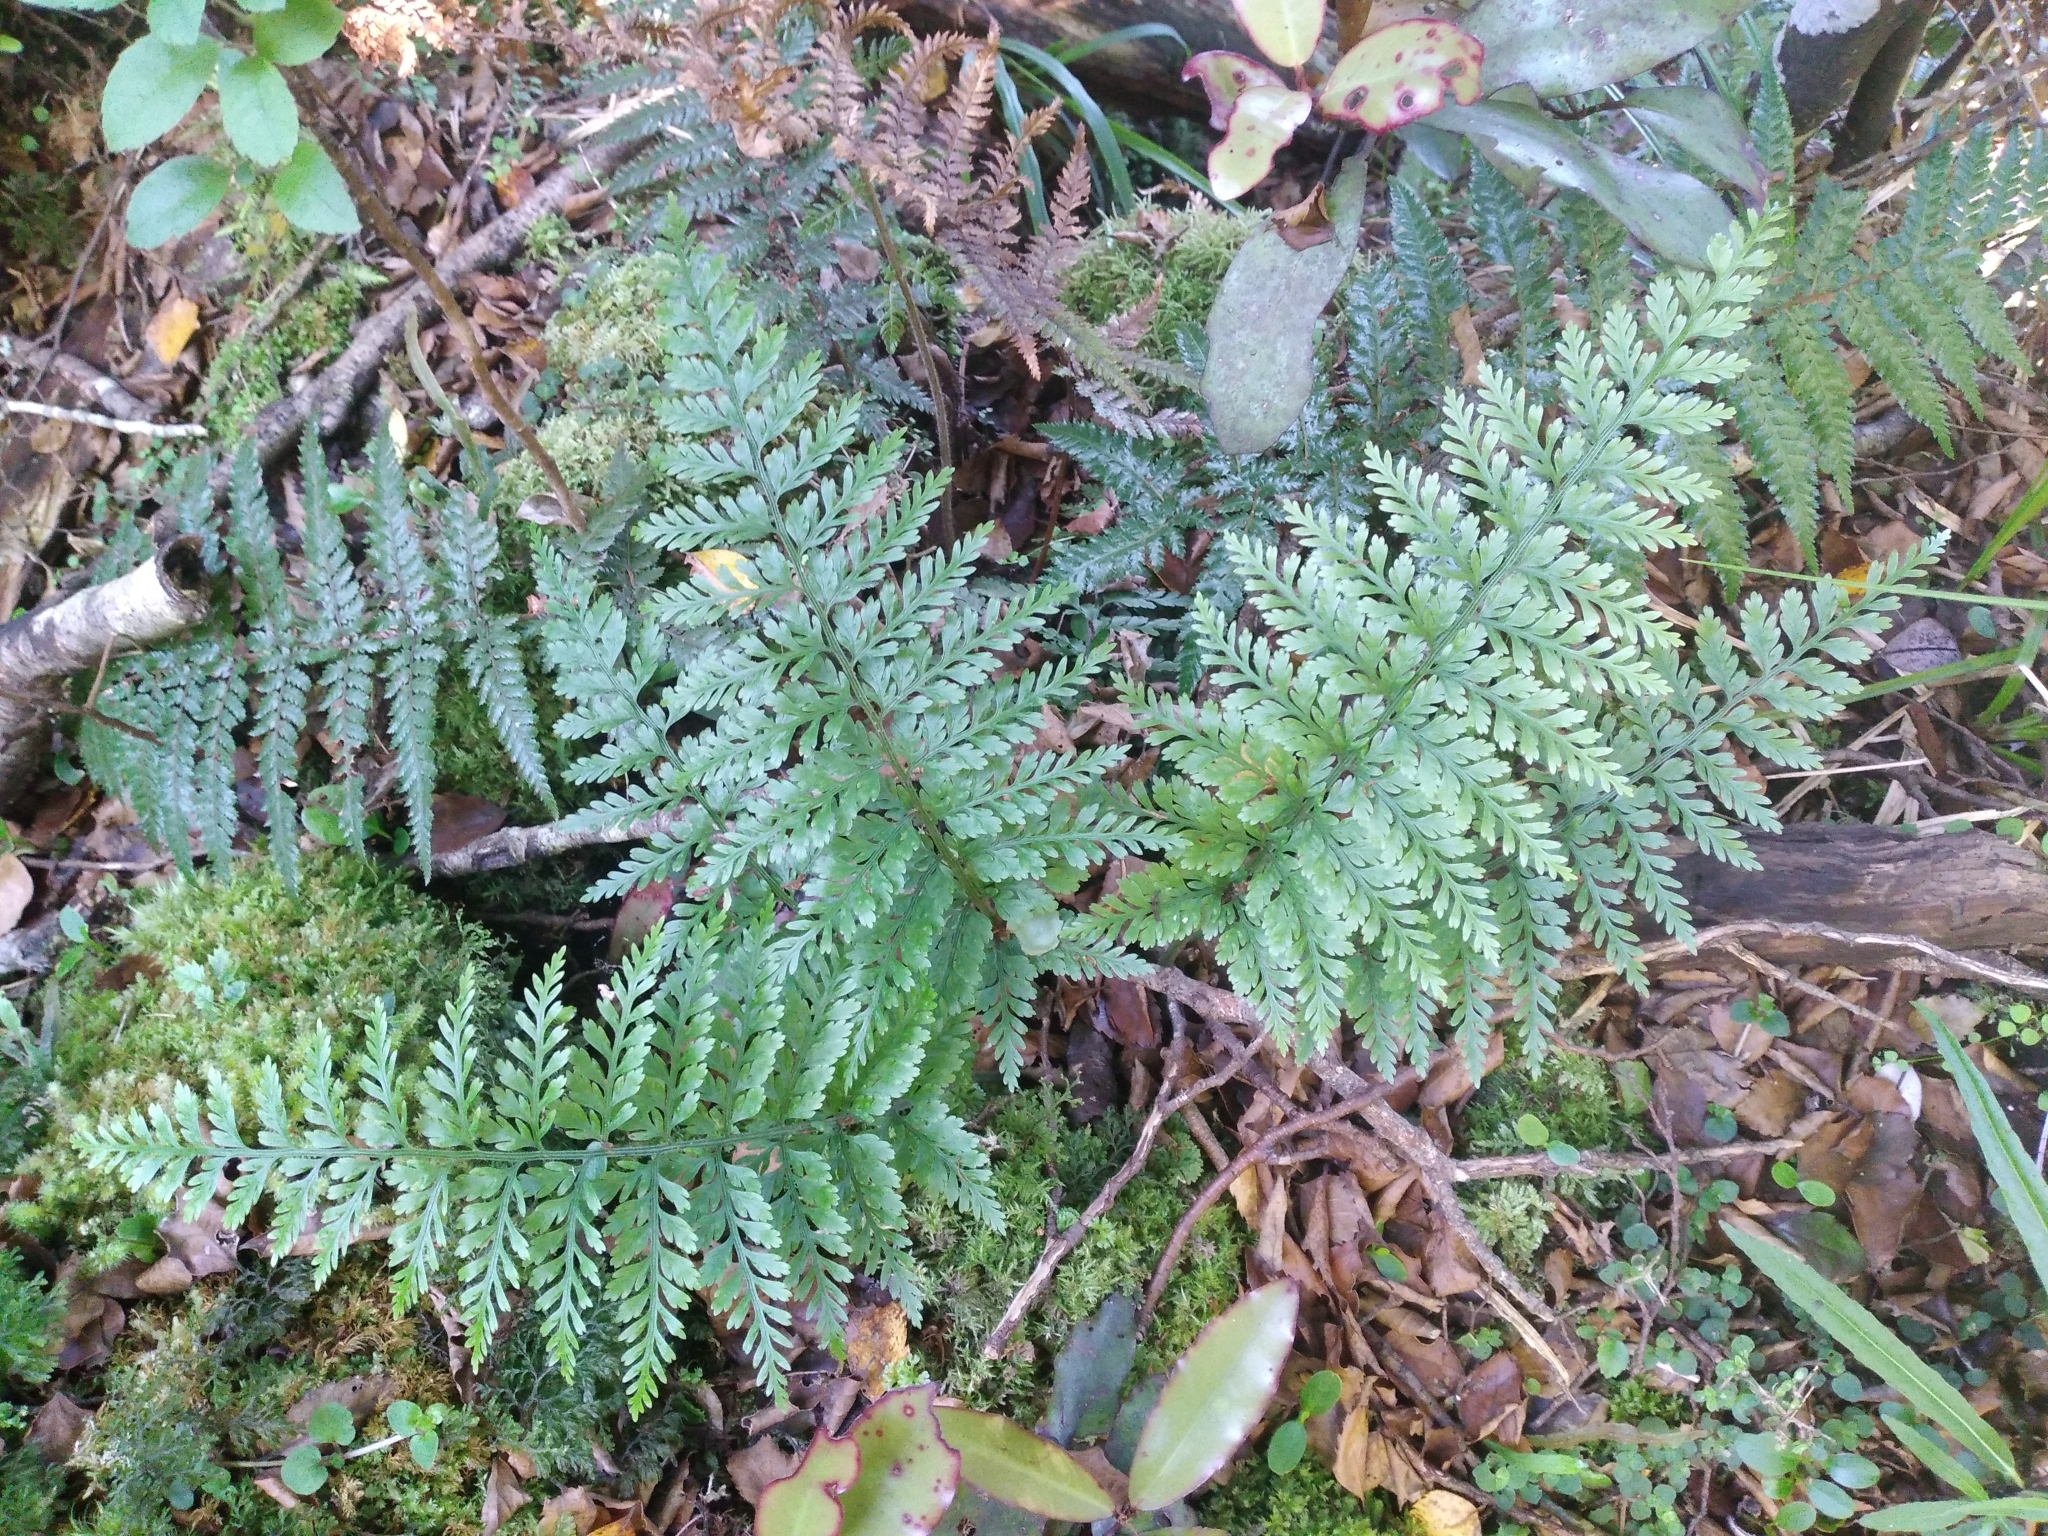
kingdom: Plantae
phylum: Tracheophyta
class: Polypodiopsida
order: Polypodiales
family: Aspleniaceae
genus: Asplenium
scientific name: Asplenium
